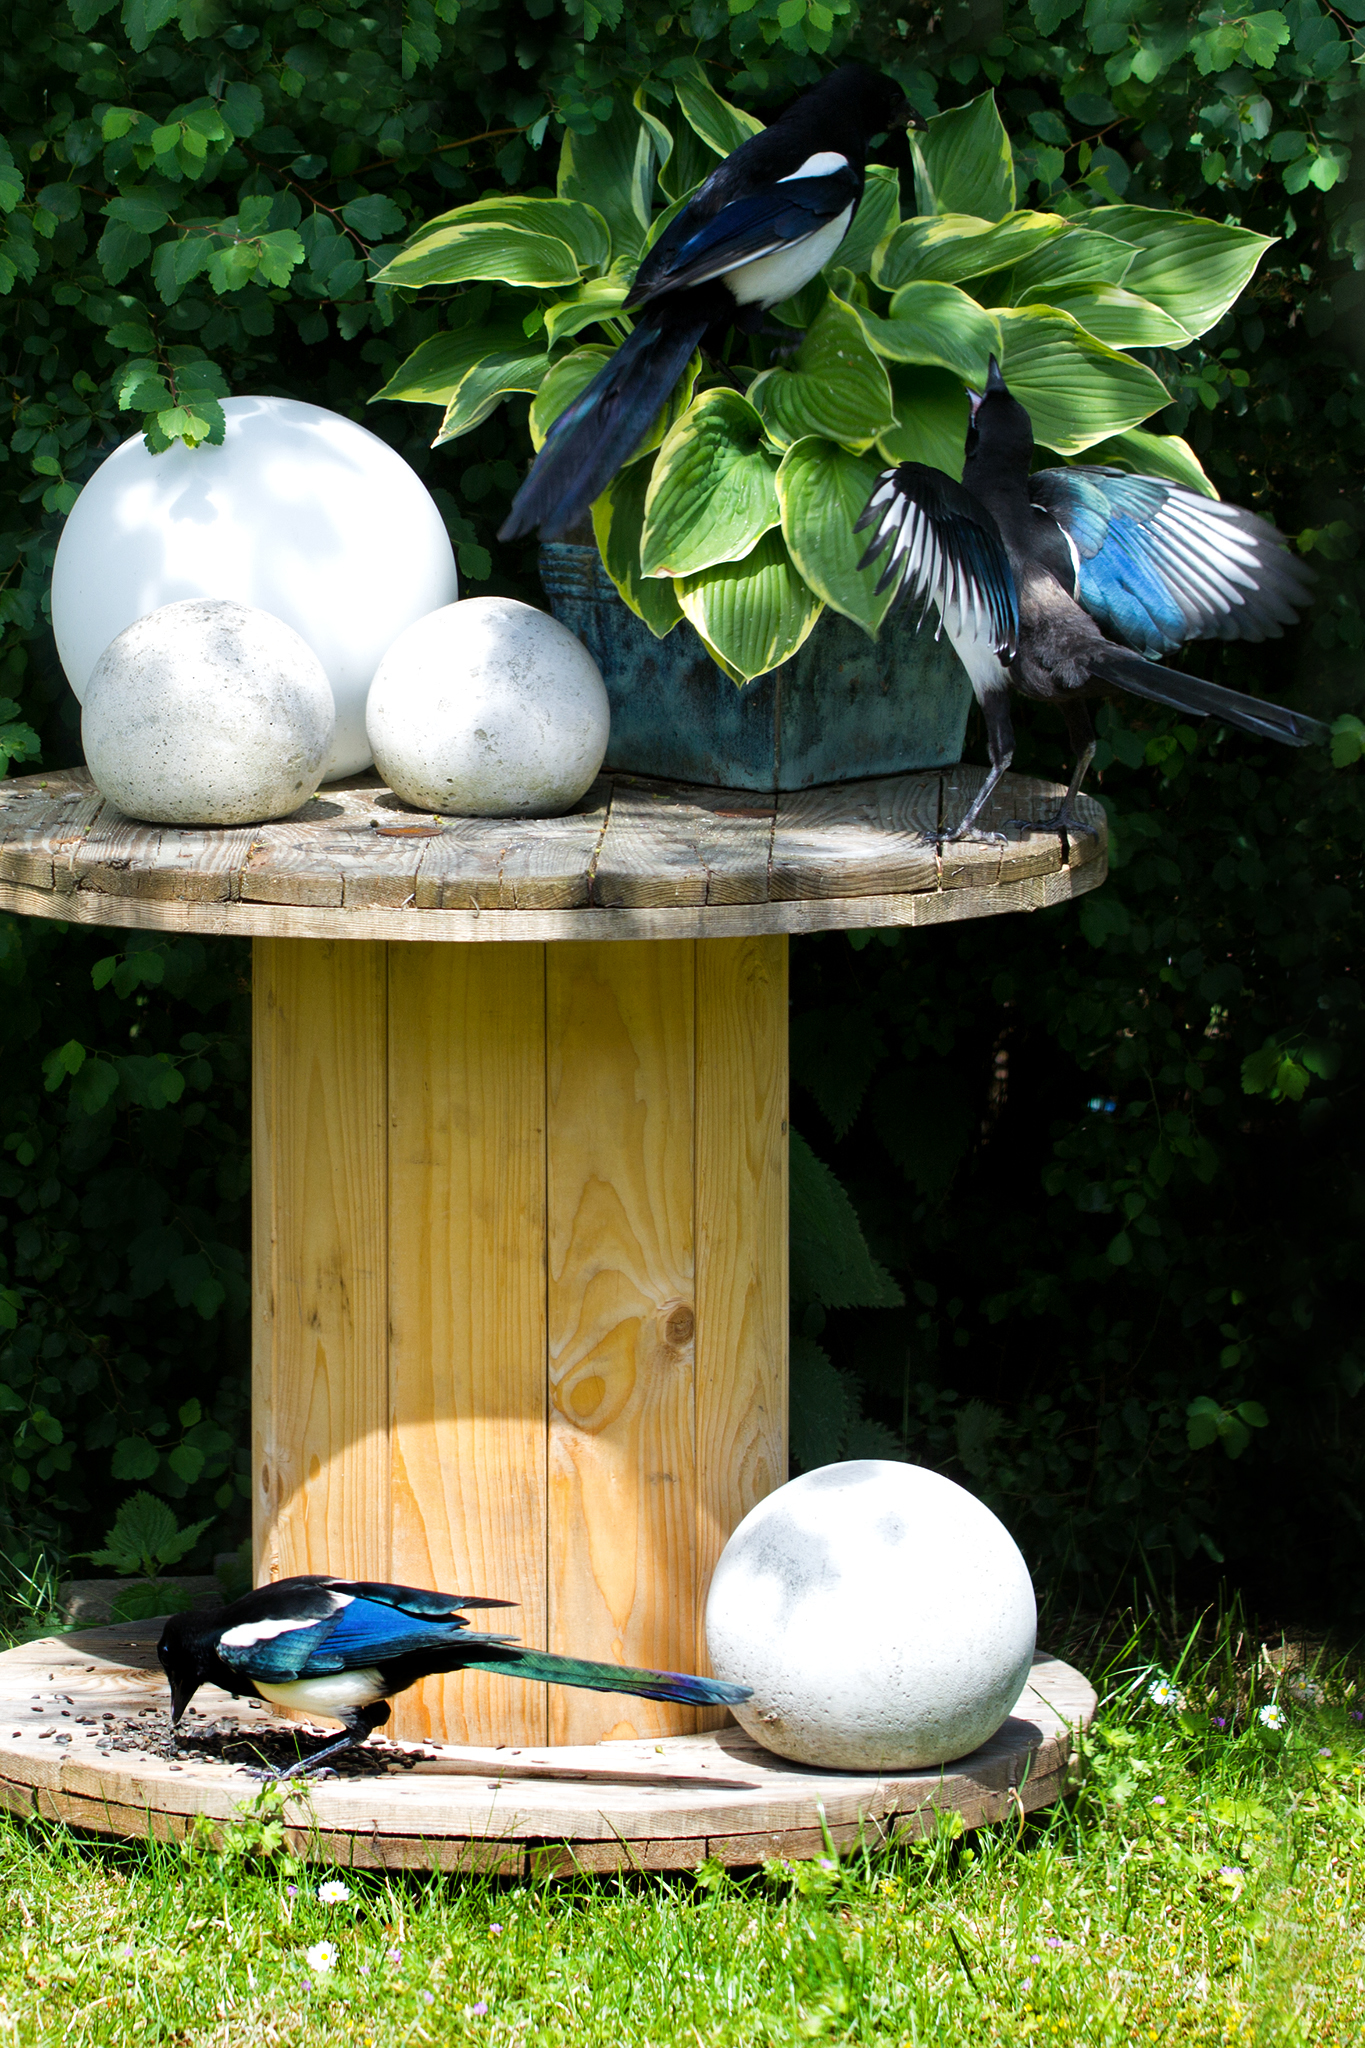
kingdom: Animalia
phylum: Chordata
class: Aves
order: Passeriformes
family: Corvidae
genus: Pica
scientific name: Pica pica
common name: Eurasian magpie
